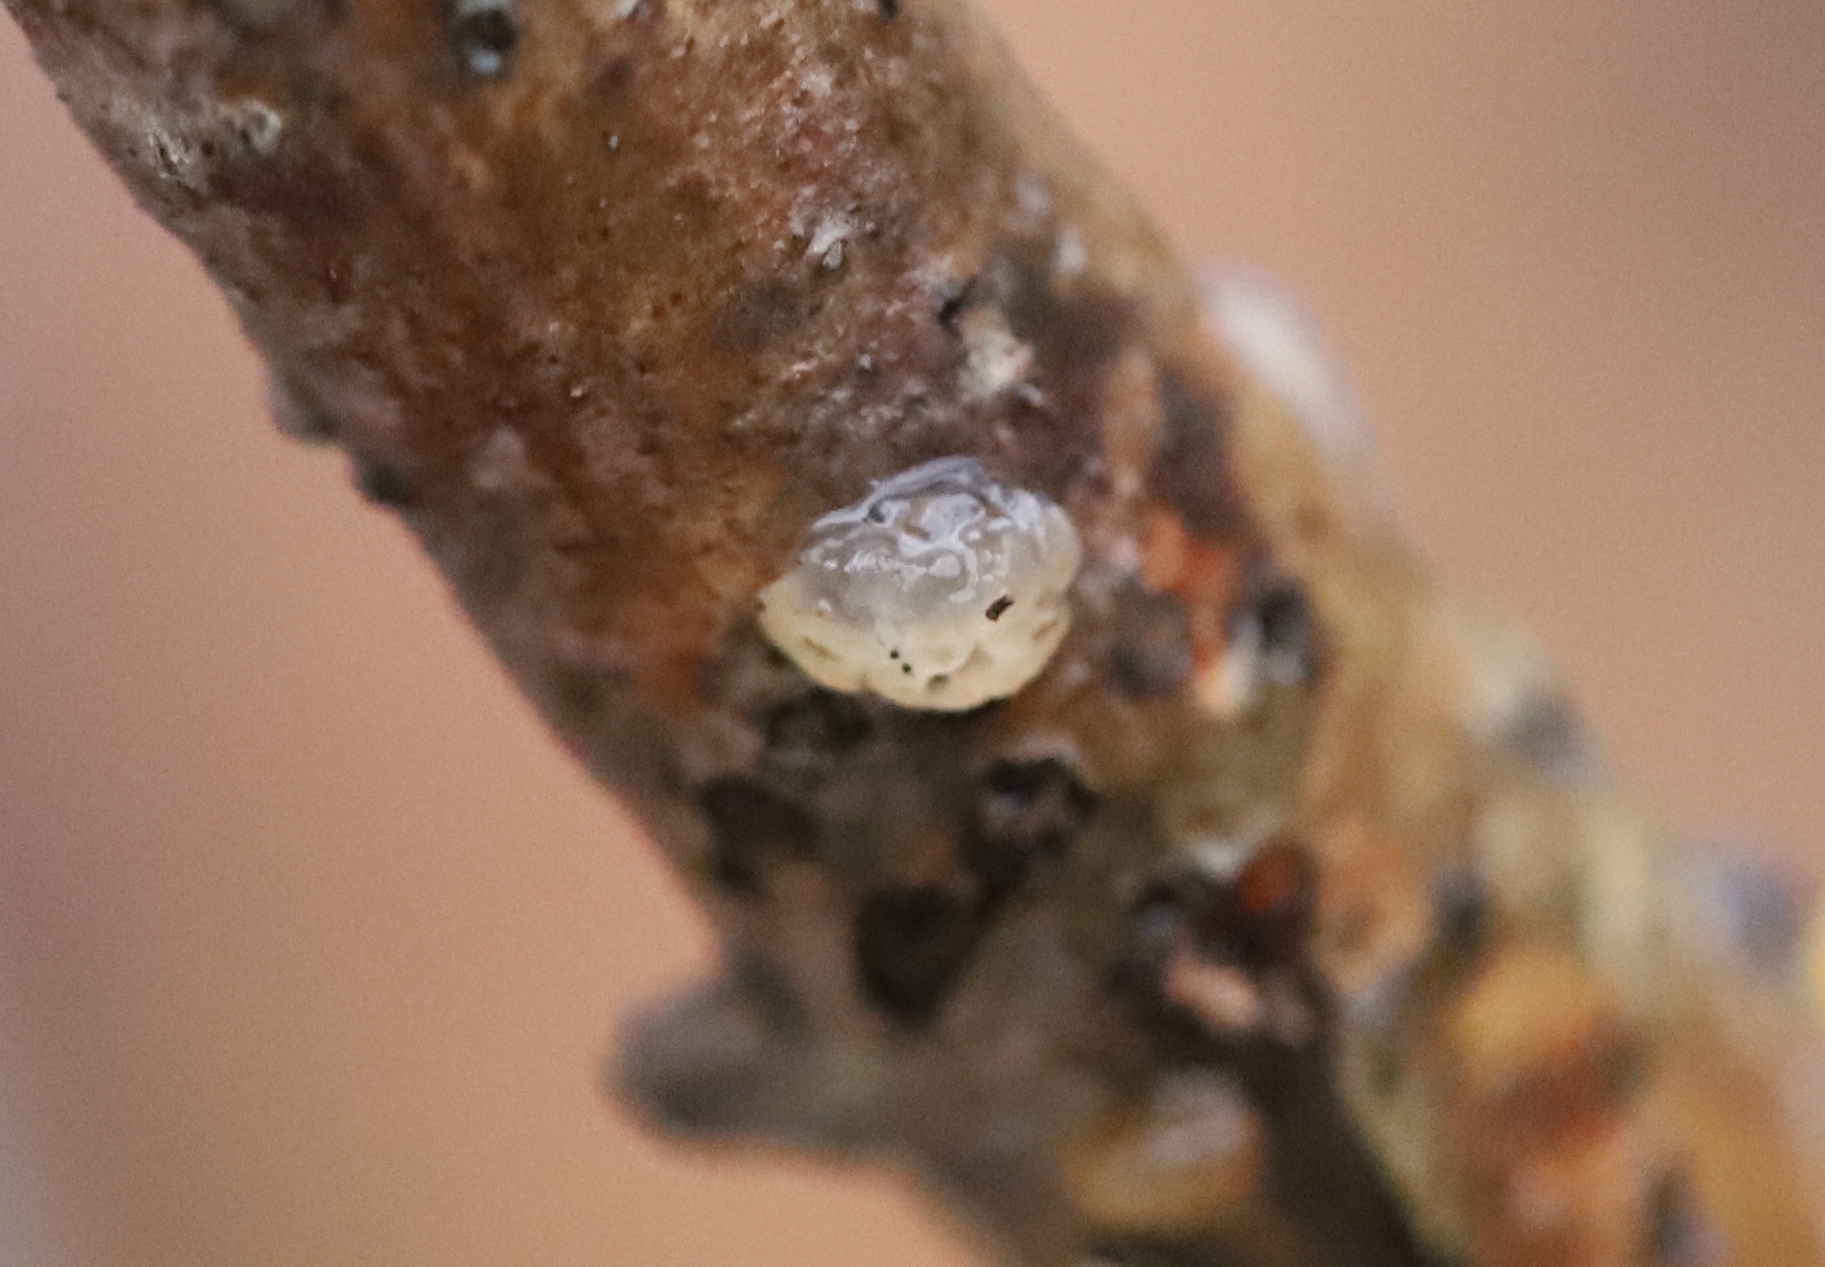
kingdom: Fungi
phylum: Basidiomycota
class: Agaricomycetes
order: Auriculariales
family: Hyaloriaceae
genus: Myxarium
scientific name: Myxarium nucleatum
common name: Crystal brain fungus
